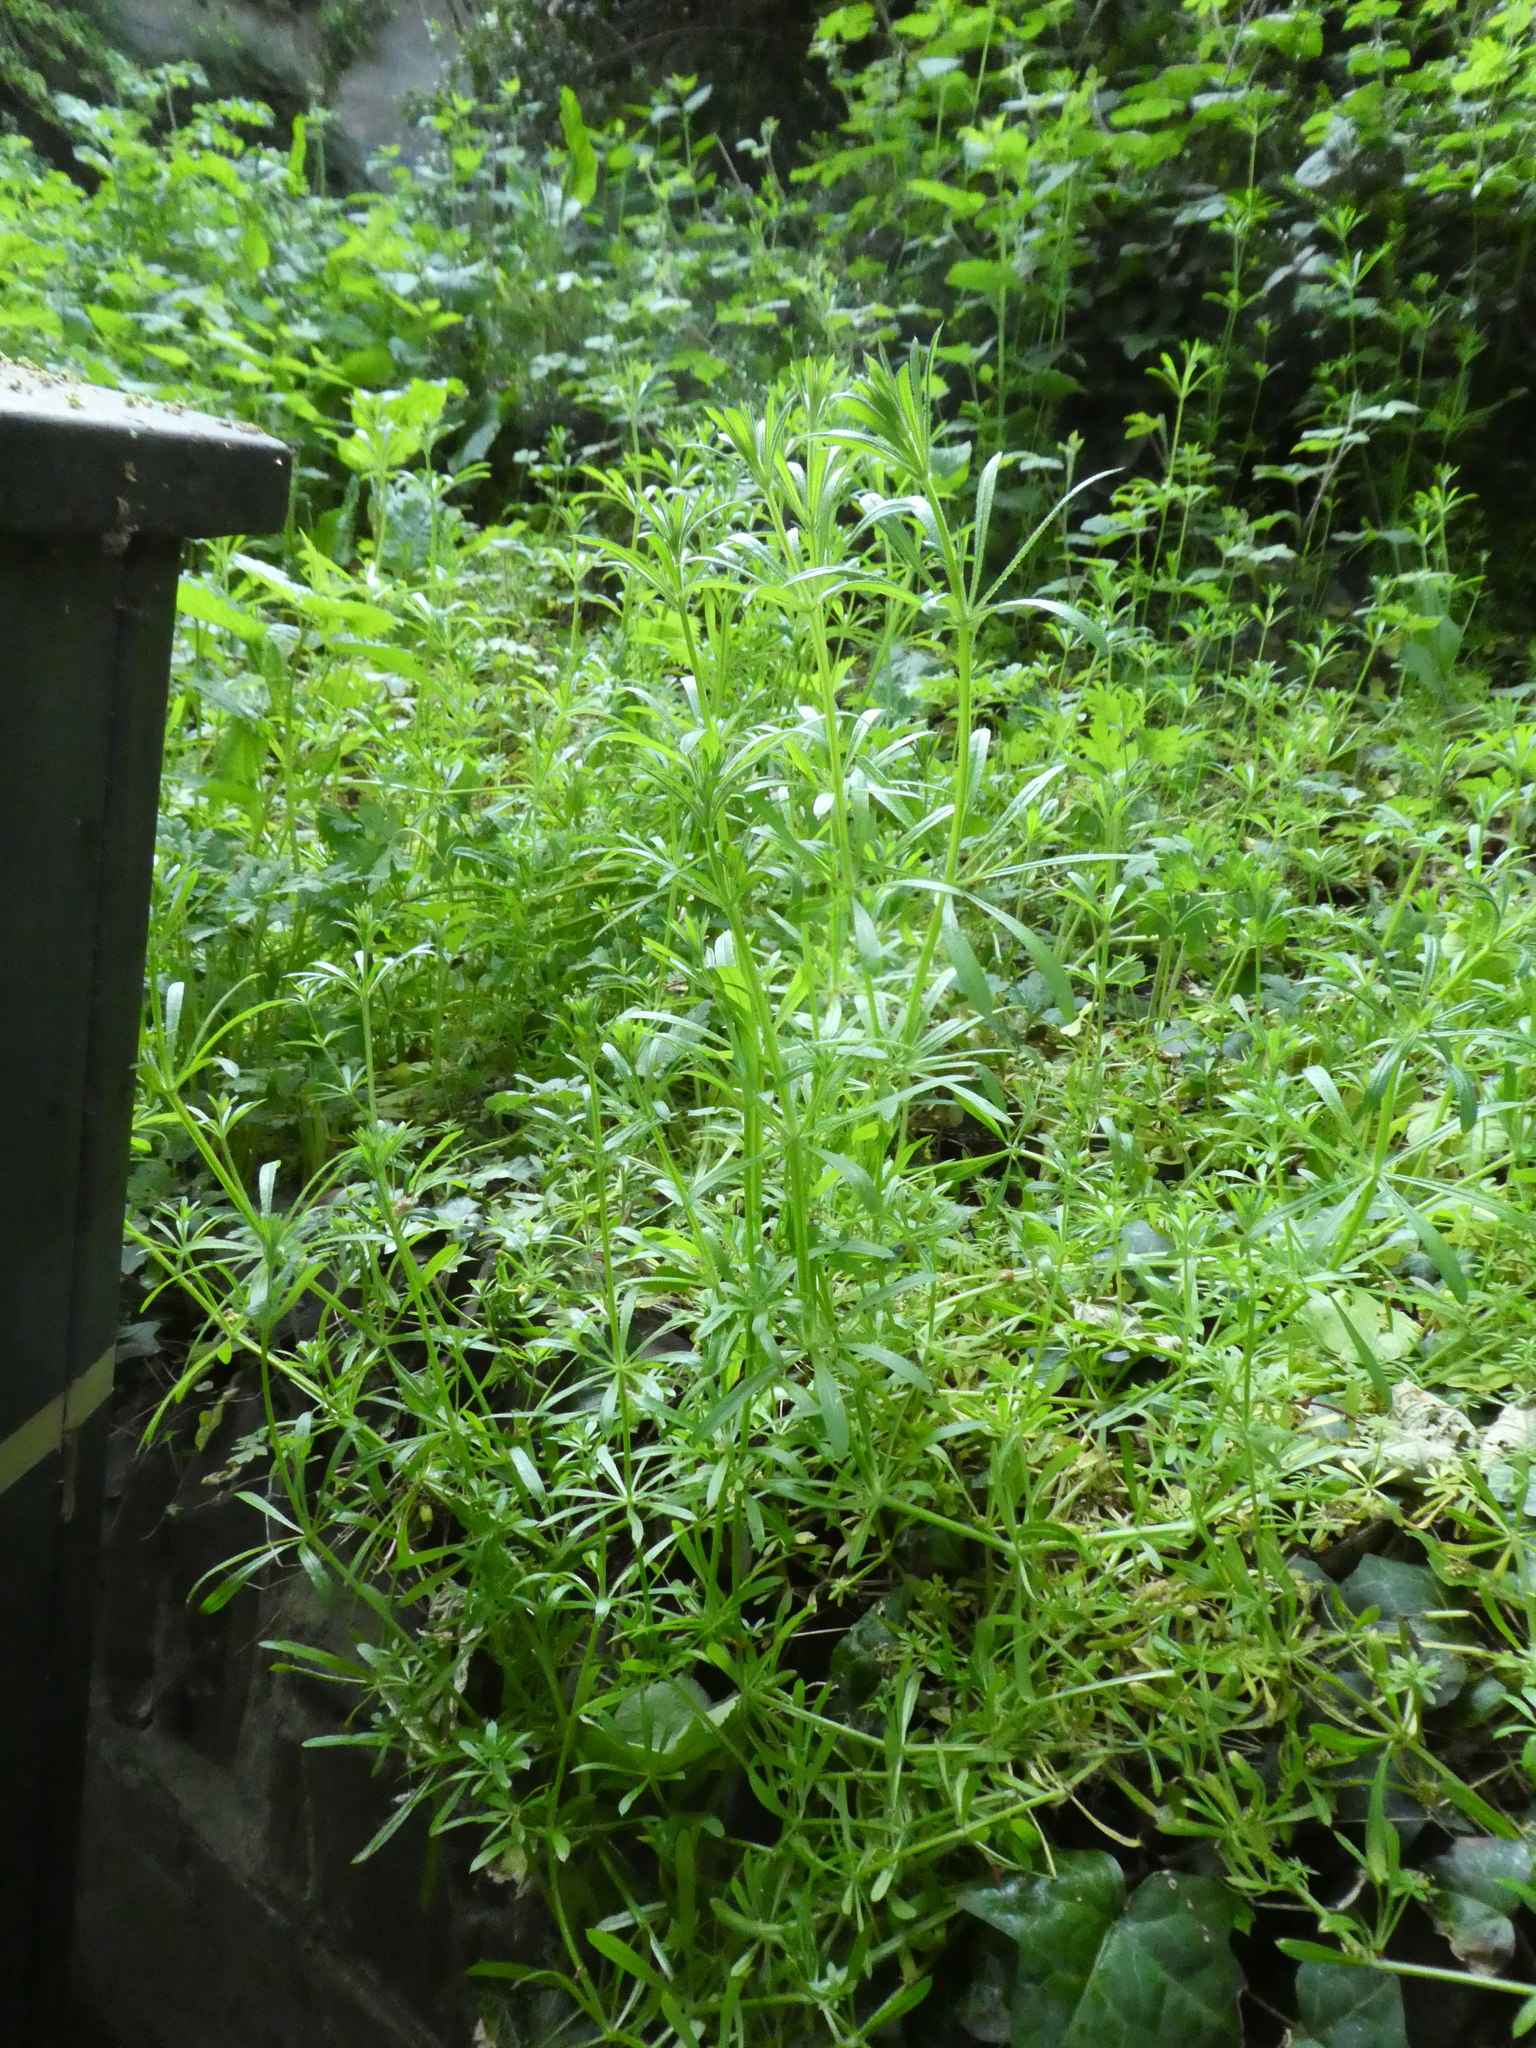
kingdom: Plantae
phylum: Tracheophyta
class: Magnoliopsida
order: Gentianales
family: Rubiaceae
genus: Galium
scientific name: Galium aparine
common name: Cleavers
